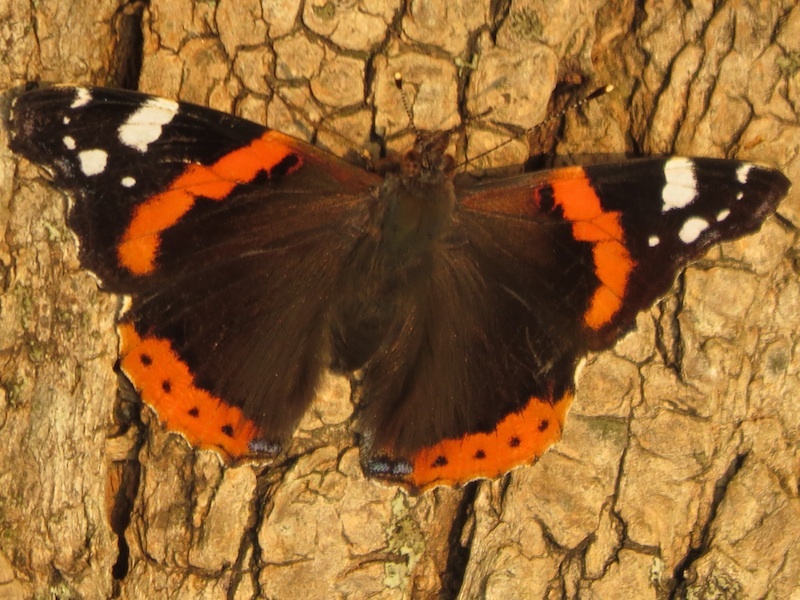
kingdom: Animalia
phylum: Arthropoda
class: Insecta
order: Lepidoptera
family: Nymphalidae
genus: Vanessa
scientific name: Vanessa atalanta
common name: Red admiral
